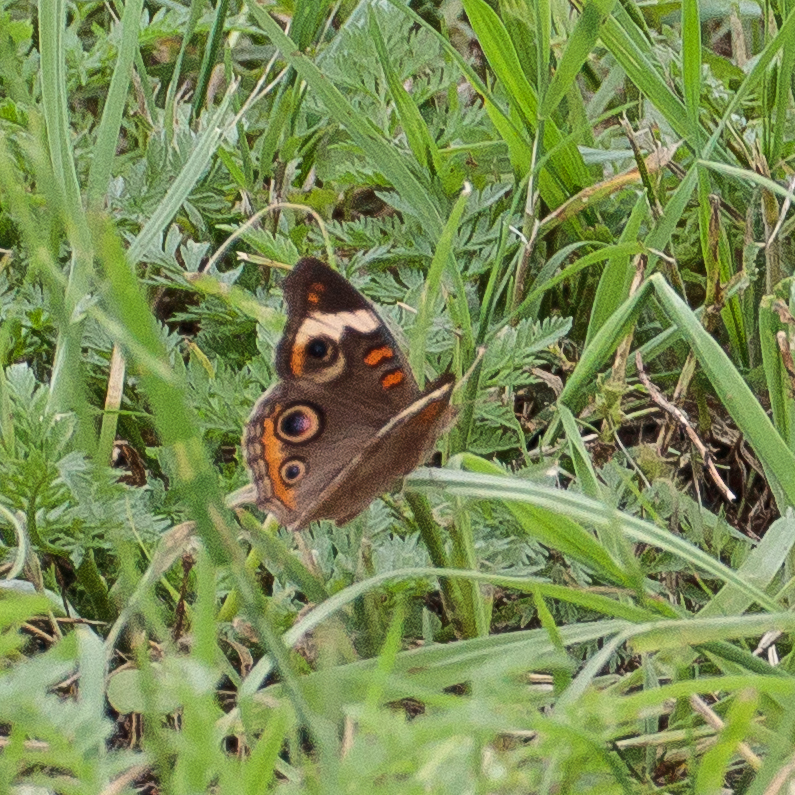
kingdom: Animalia
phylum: Arthropoda
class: Insecta
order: Lepidoptera
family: Nymphalidae
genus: Junonia
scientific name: Junonia coenia
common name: Common buckeye
